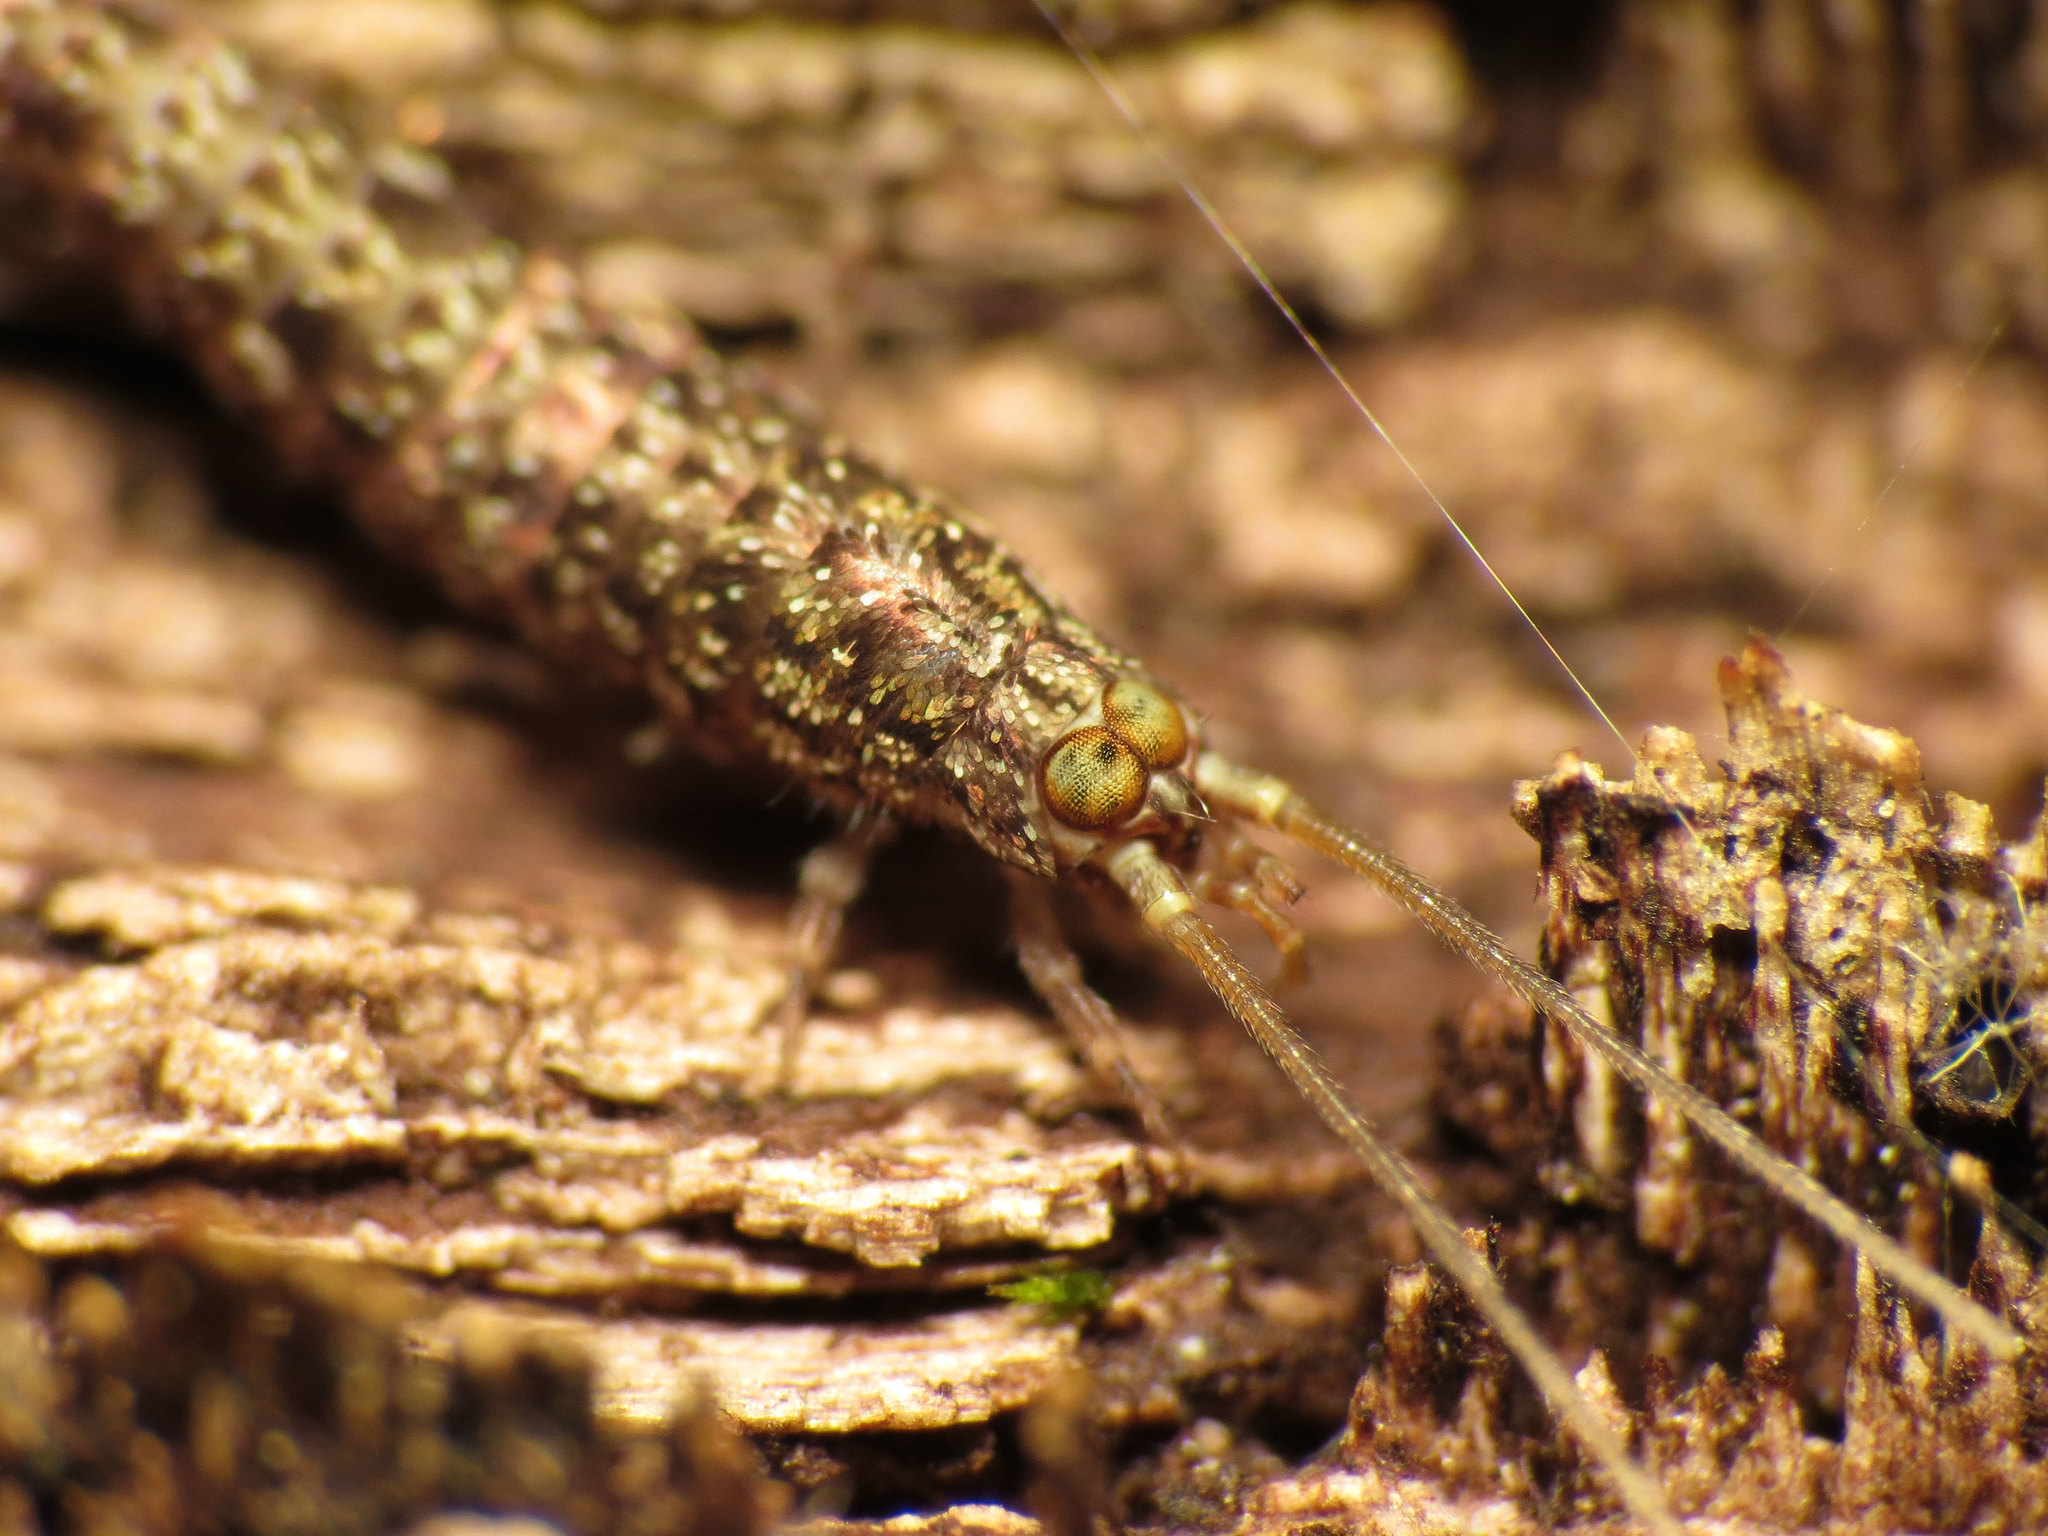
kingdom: Animalia
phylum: Arthropoda
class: Insecta
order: Archaeognatha
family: Meinertellidae
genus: Machiloides
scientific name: Machiloides banksi
